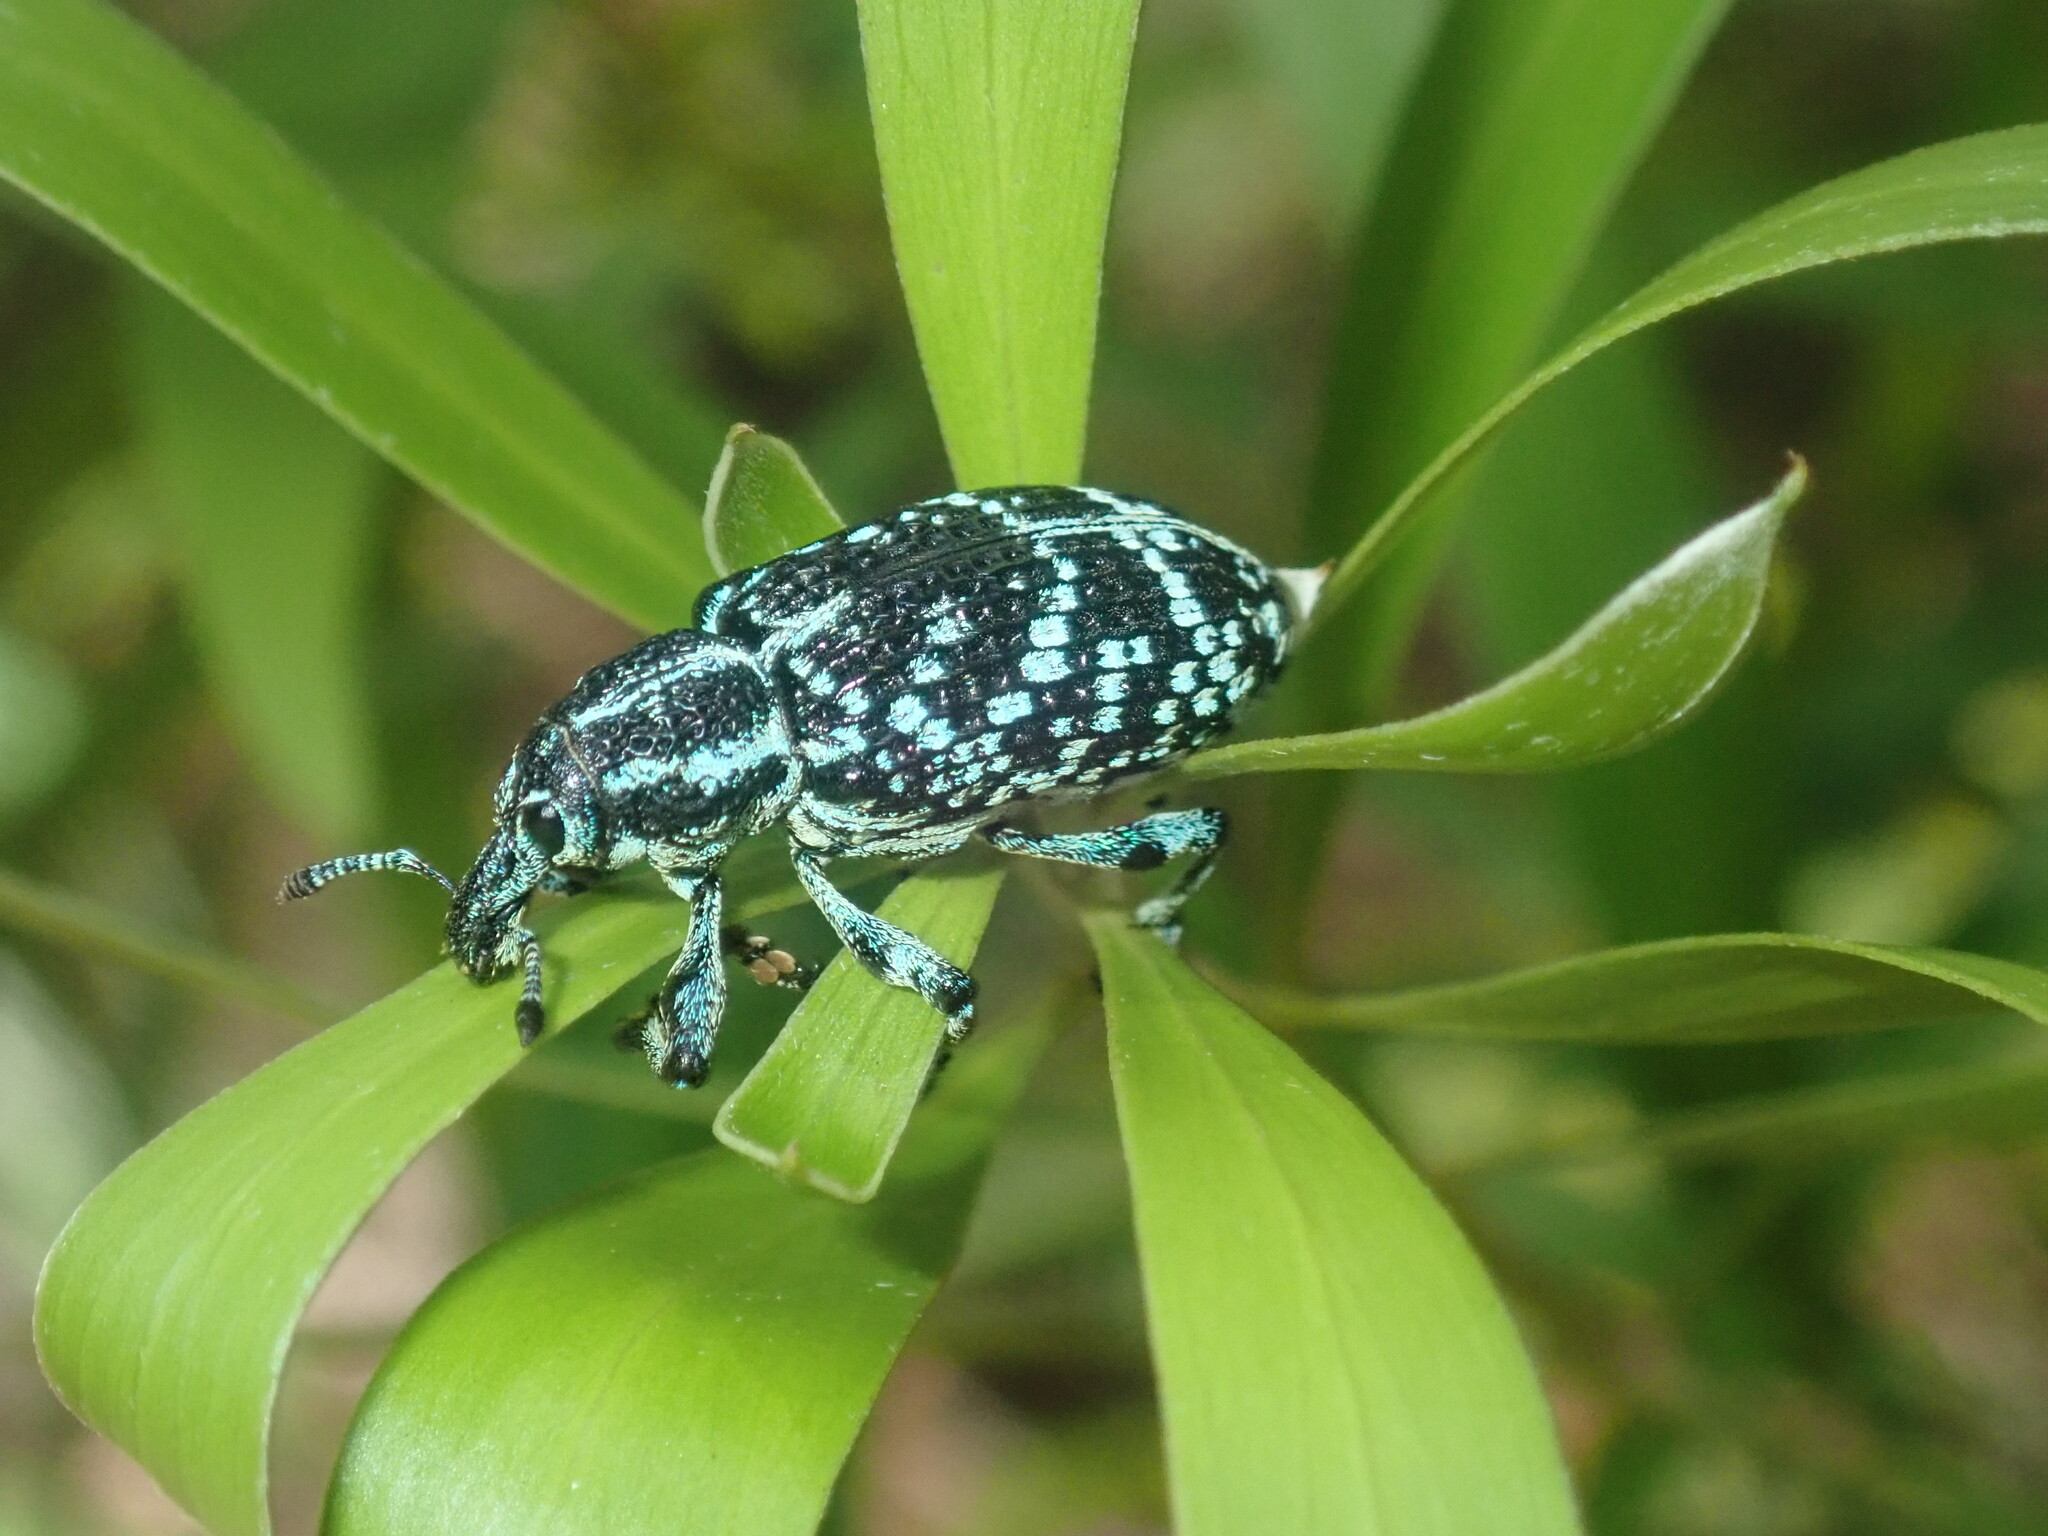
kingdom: Animalia
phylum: Arthropoda
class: Insecta
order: Coleoptera
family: Curculionidae
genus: Chrysolopus
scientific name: Chrysolopus spectabilis
